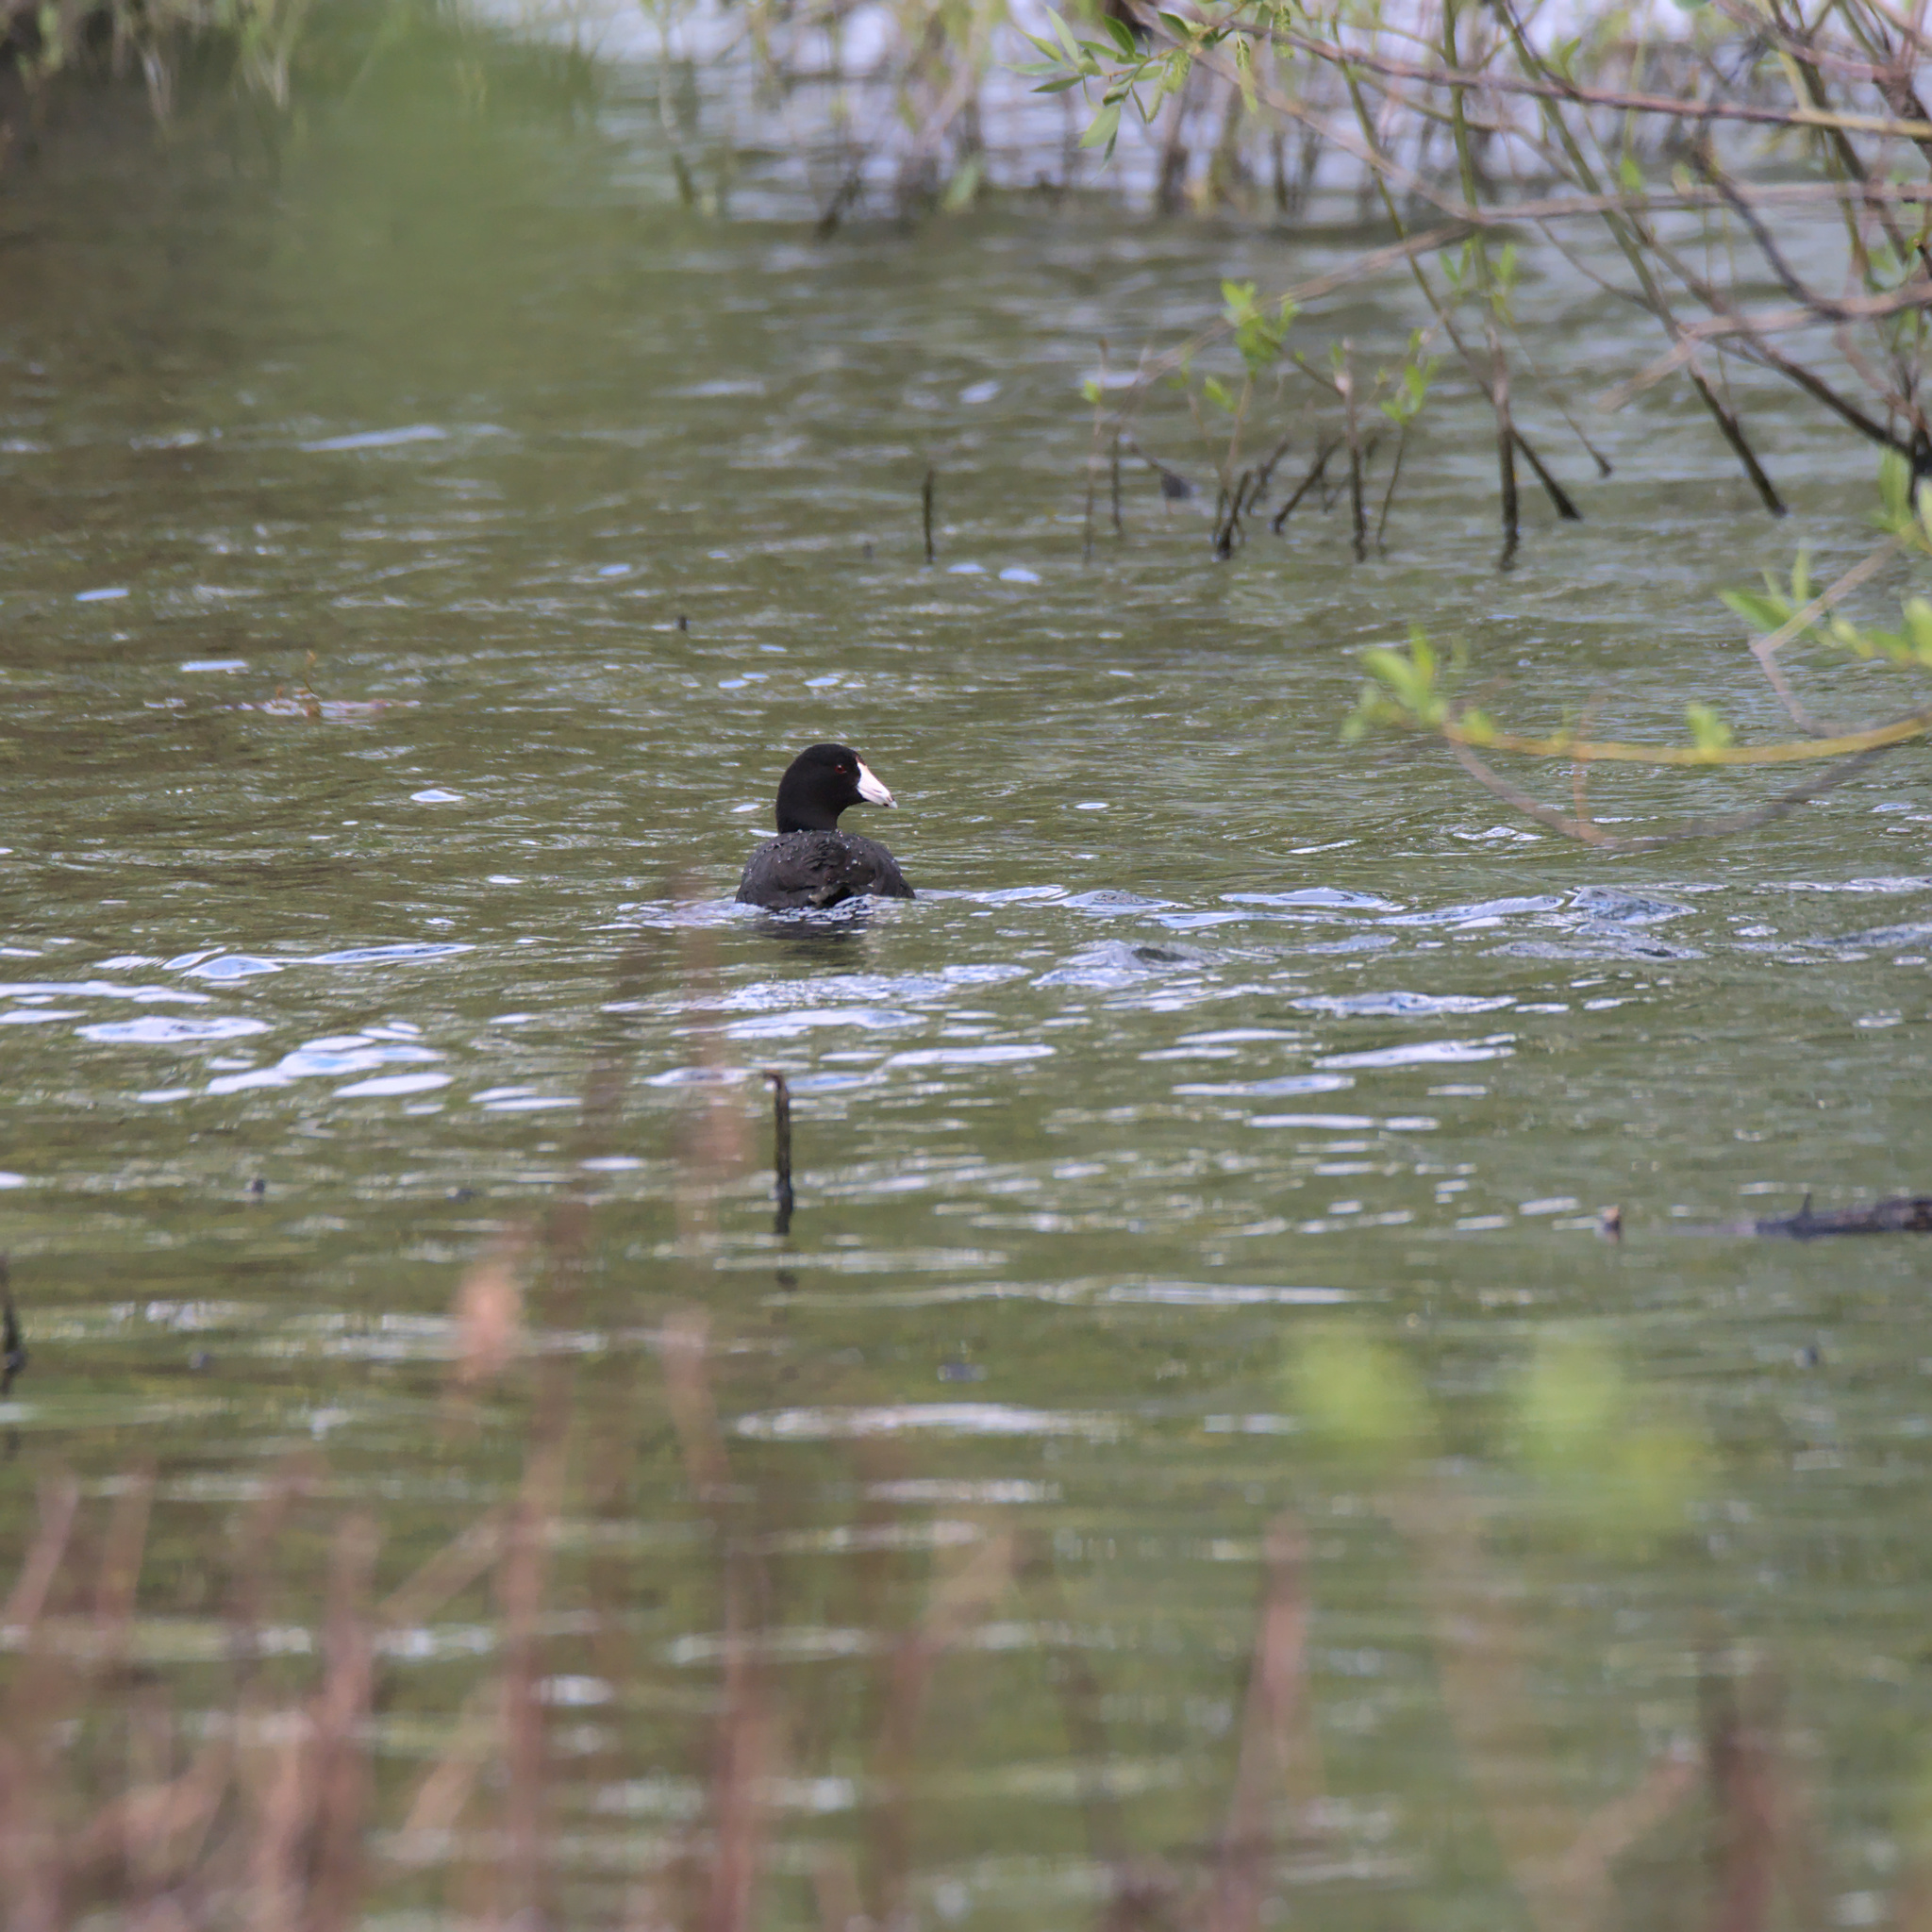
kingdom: Animalia
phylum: Chordata
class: Aves
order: Gruiformes
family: Rallidae
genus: Fulica
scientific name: Fulica americana
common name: American coot
